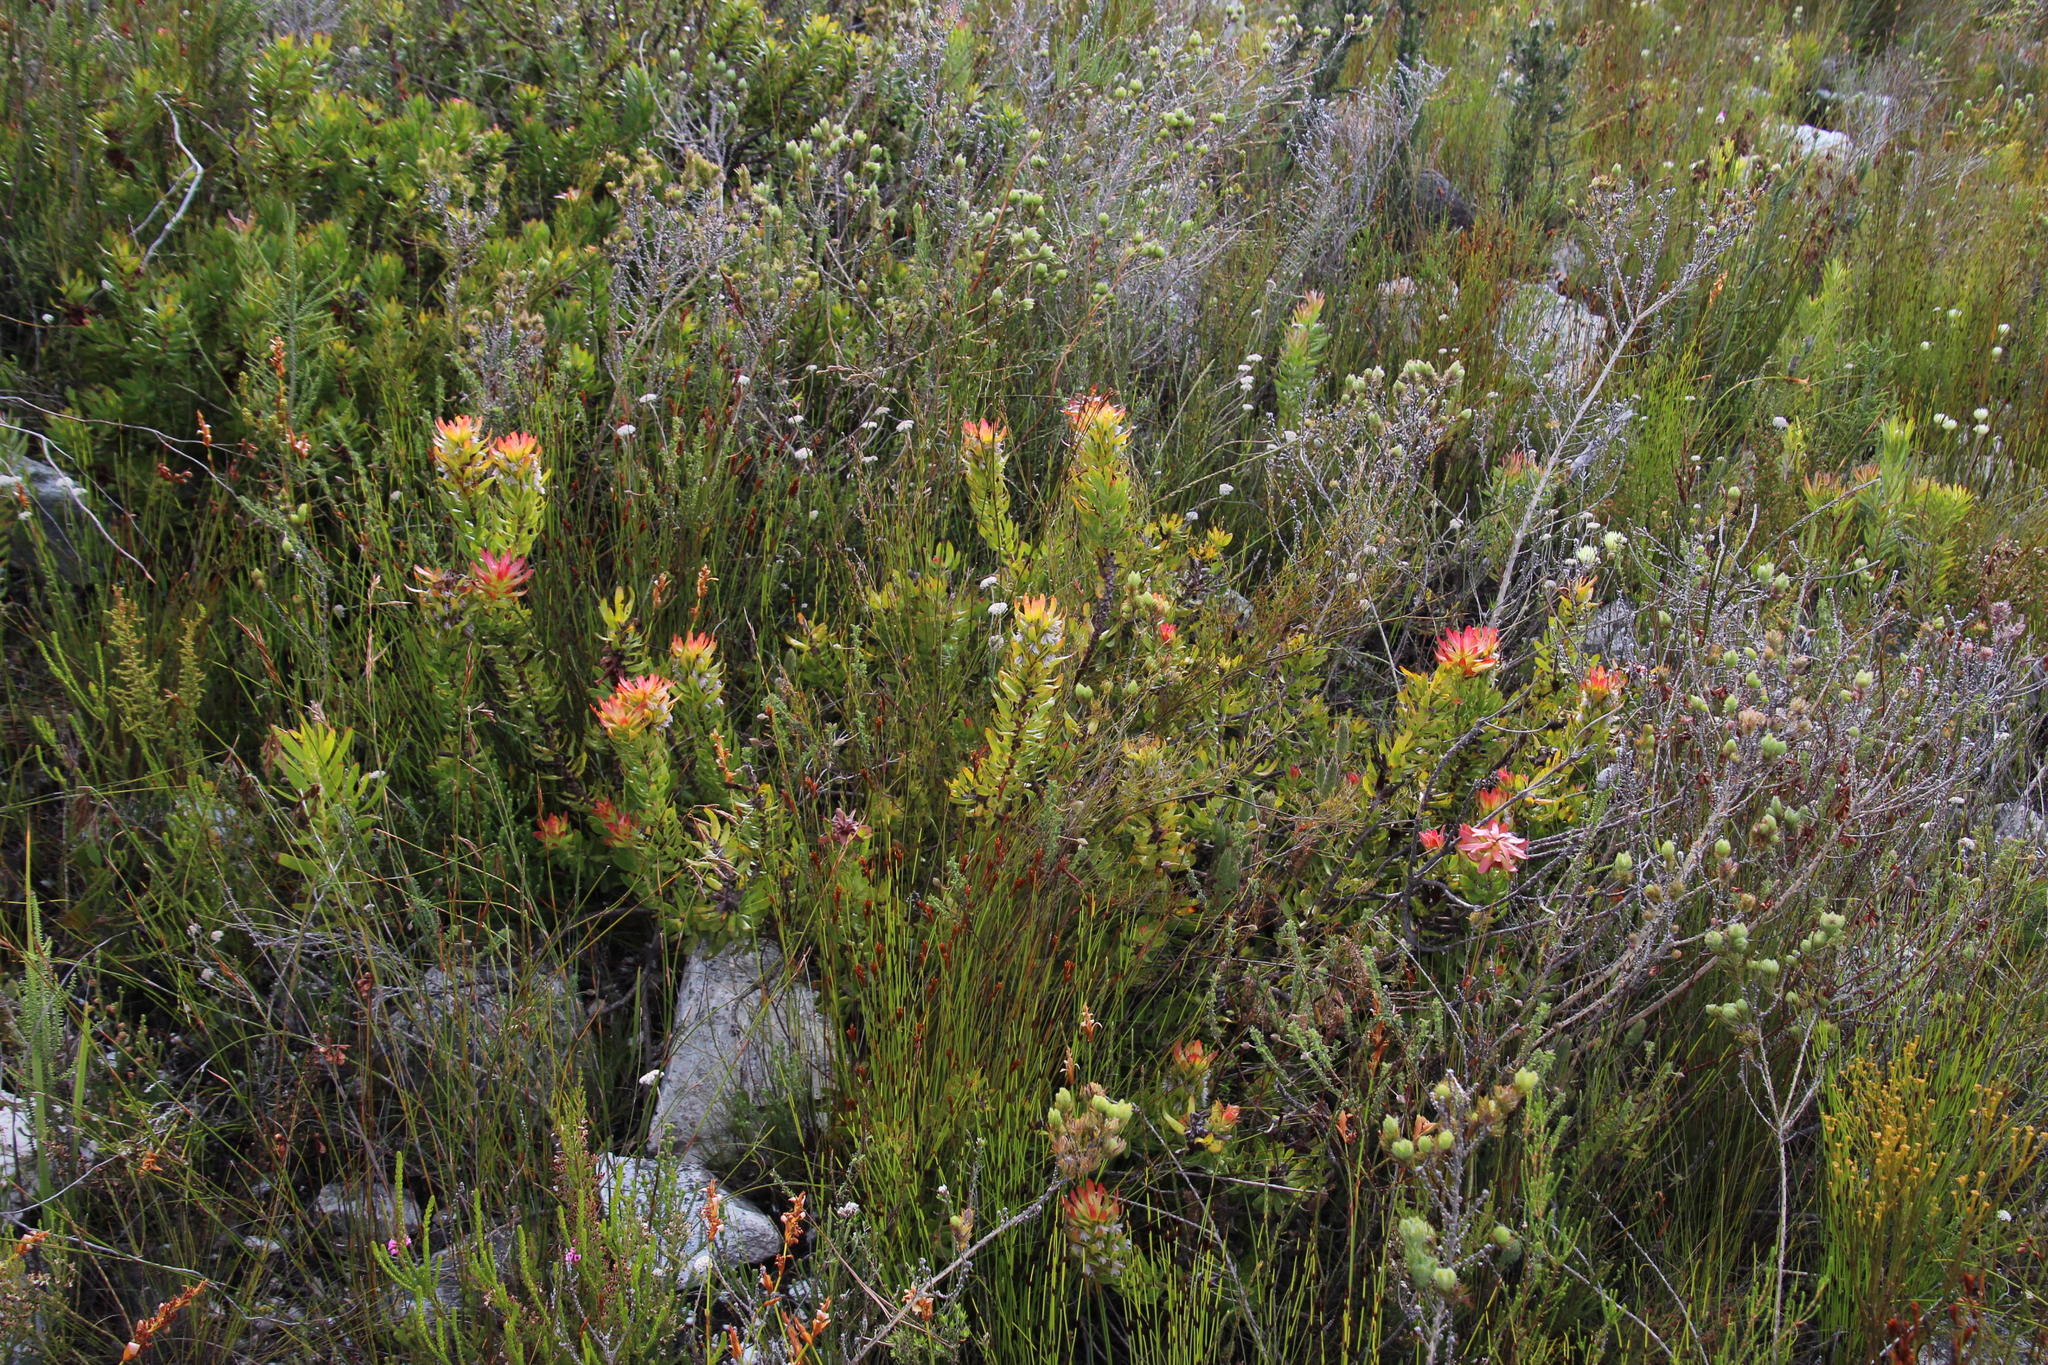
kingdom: Plantae
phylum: Tracheophyta
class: Magnoliopsida
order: Proteales
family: Proteaceae
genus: Mimetes
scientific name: Mimetes cucullatus
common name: Common pagoda
